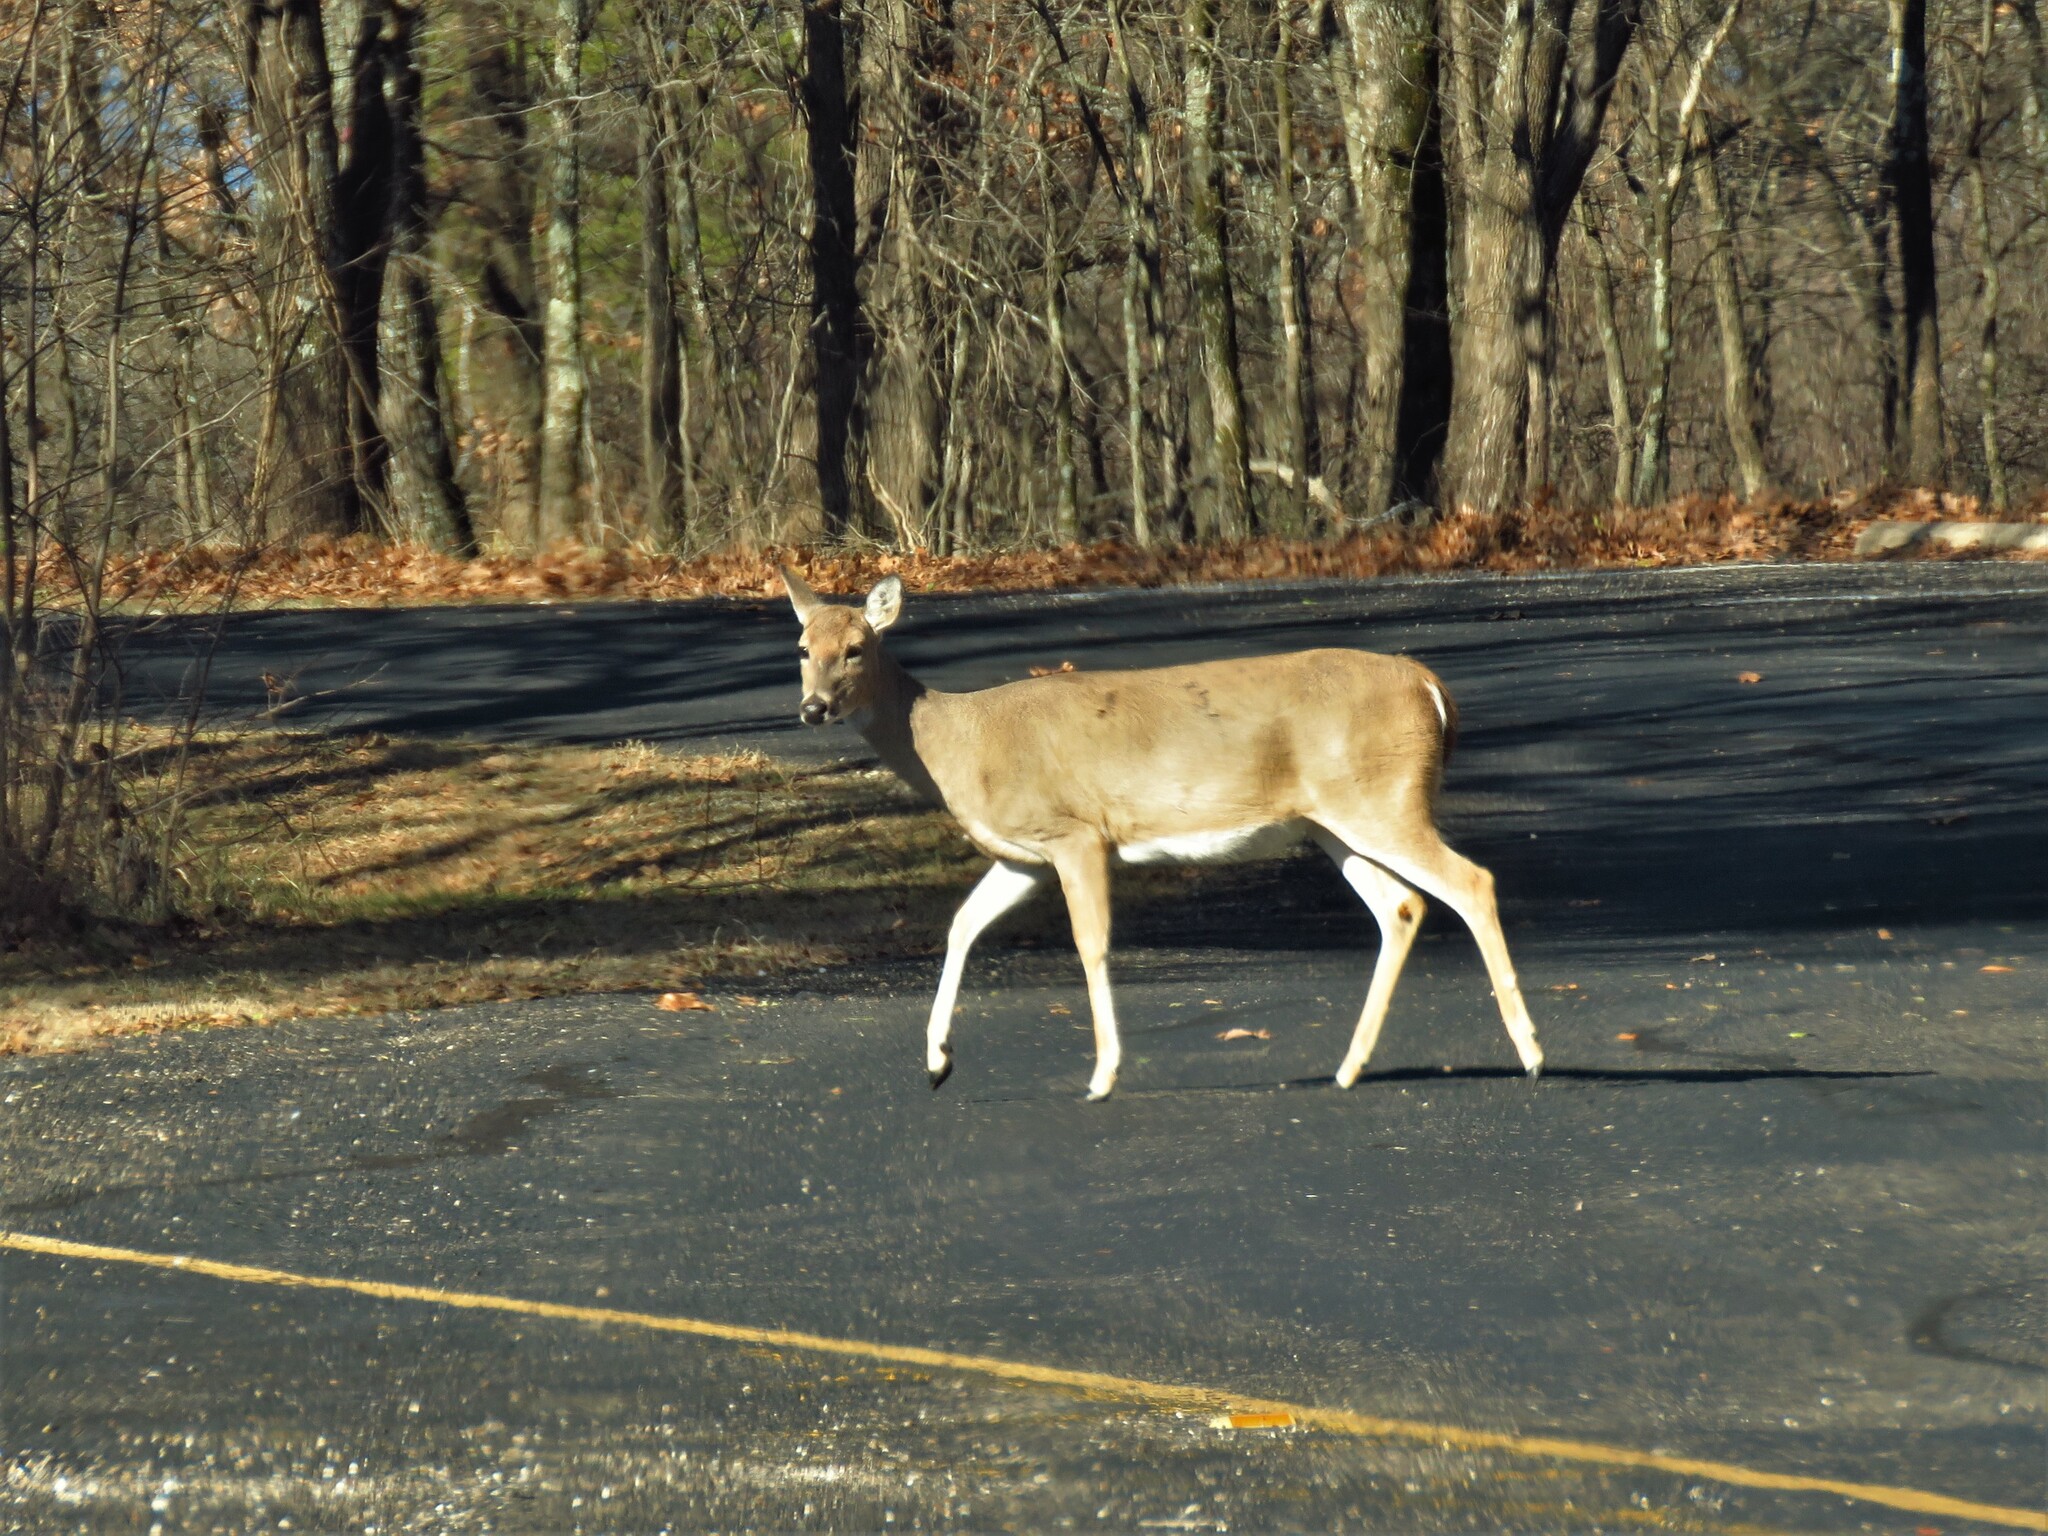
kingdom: Animalia
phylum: Chordata
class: Mammalia
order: Artiodactyla
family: Cervidae
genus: Odocoileus
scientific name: Odocoileus virginianus
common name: White-tailed deer
